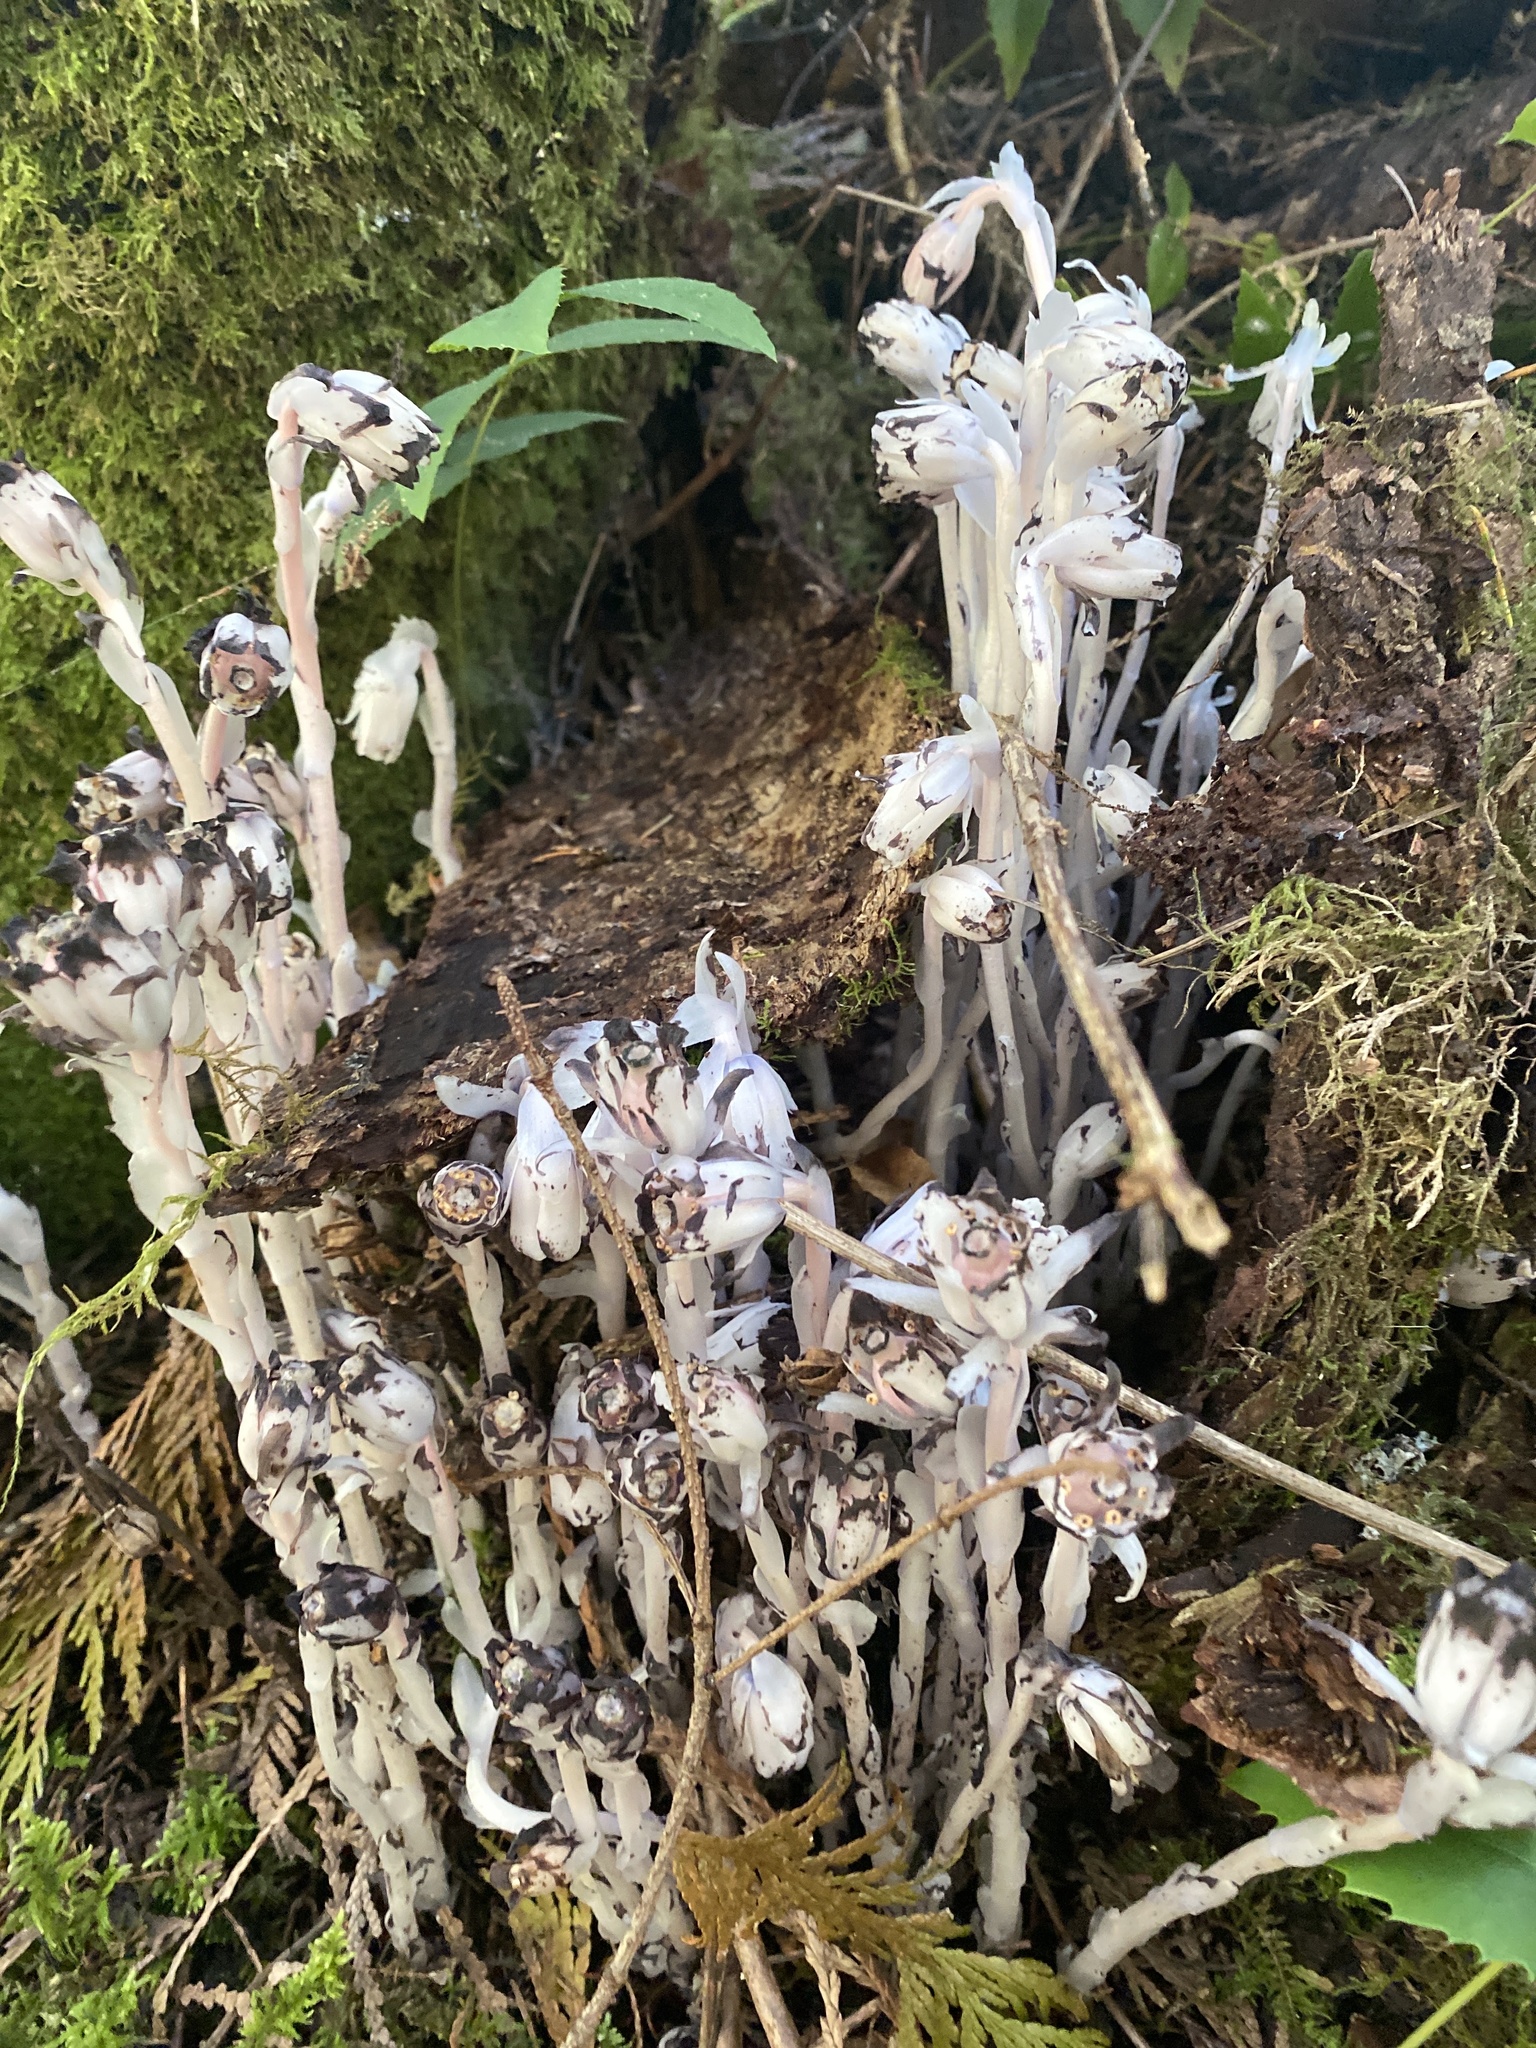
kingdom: Plantae
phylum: Tracheophyta
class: Magnoliopsida
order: Ericales
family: Ericaceae
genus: Monotropa
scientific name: Monotropa uniflora
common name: Convulsion root
